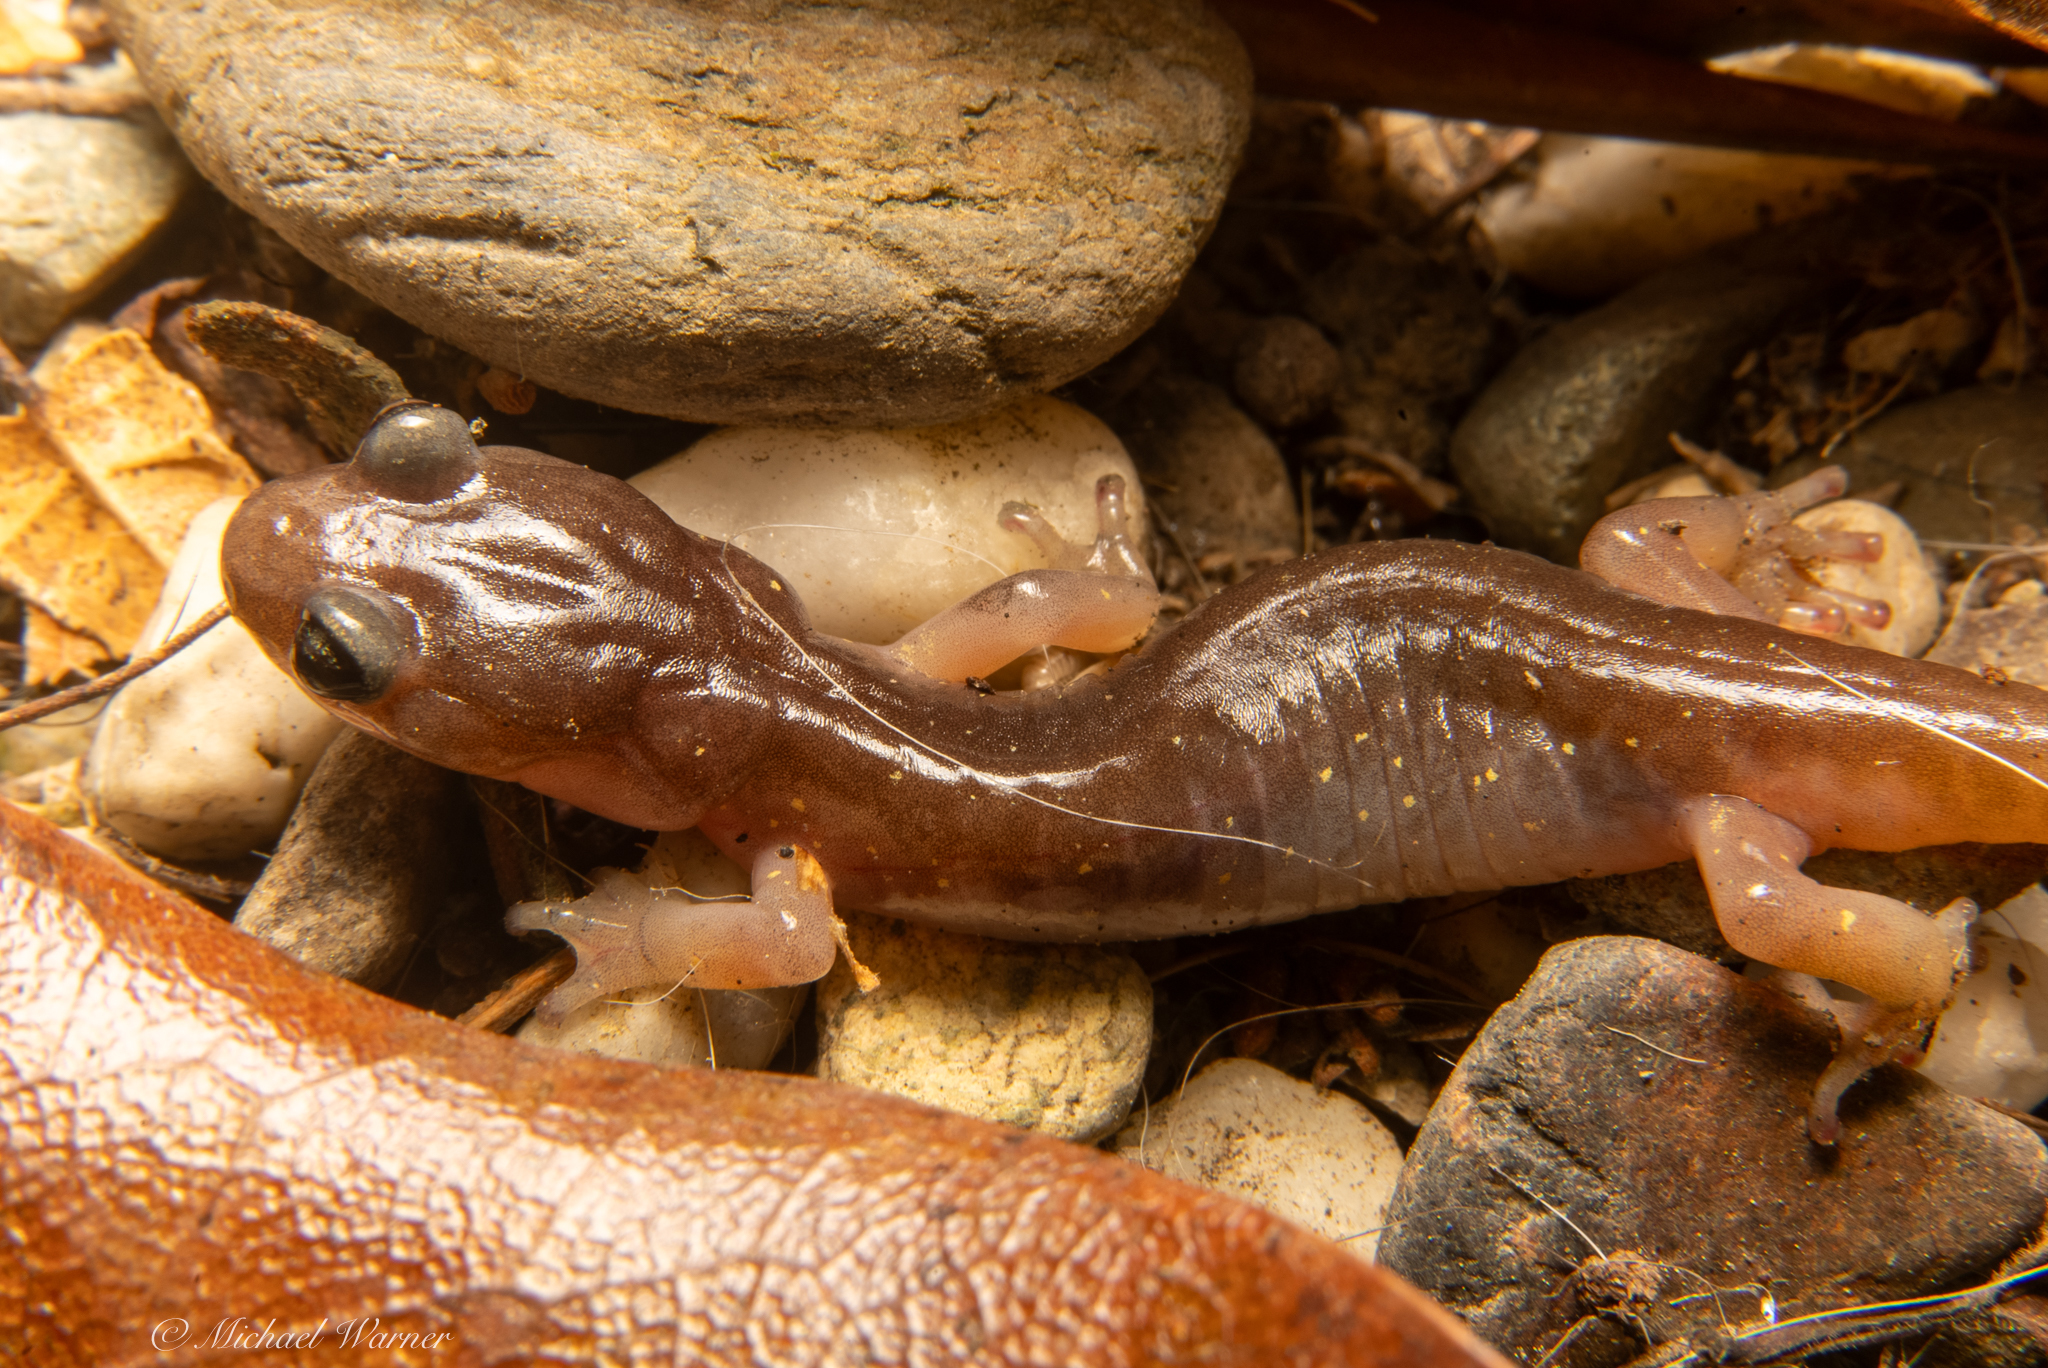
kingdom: Animalia
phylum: Chordata
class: Amphibia
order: Caudata
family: Plethodontidae
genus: Aneides
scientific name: Aneides lugubris
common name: Arboreal salamander
